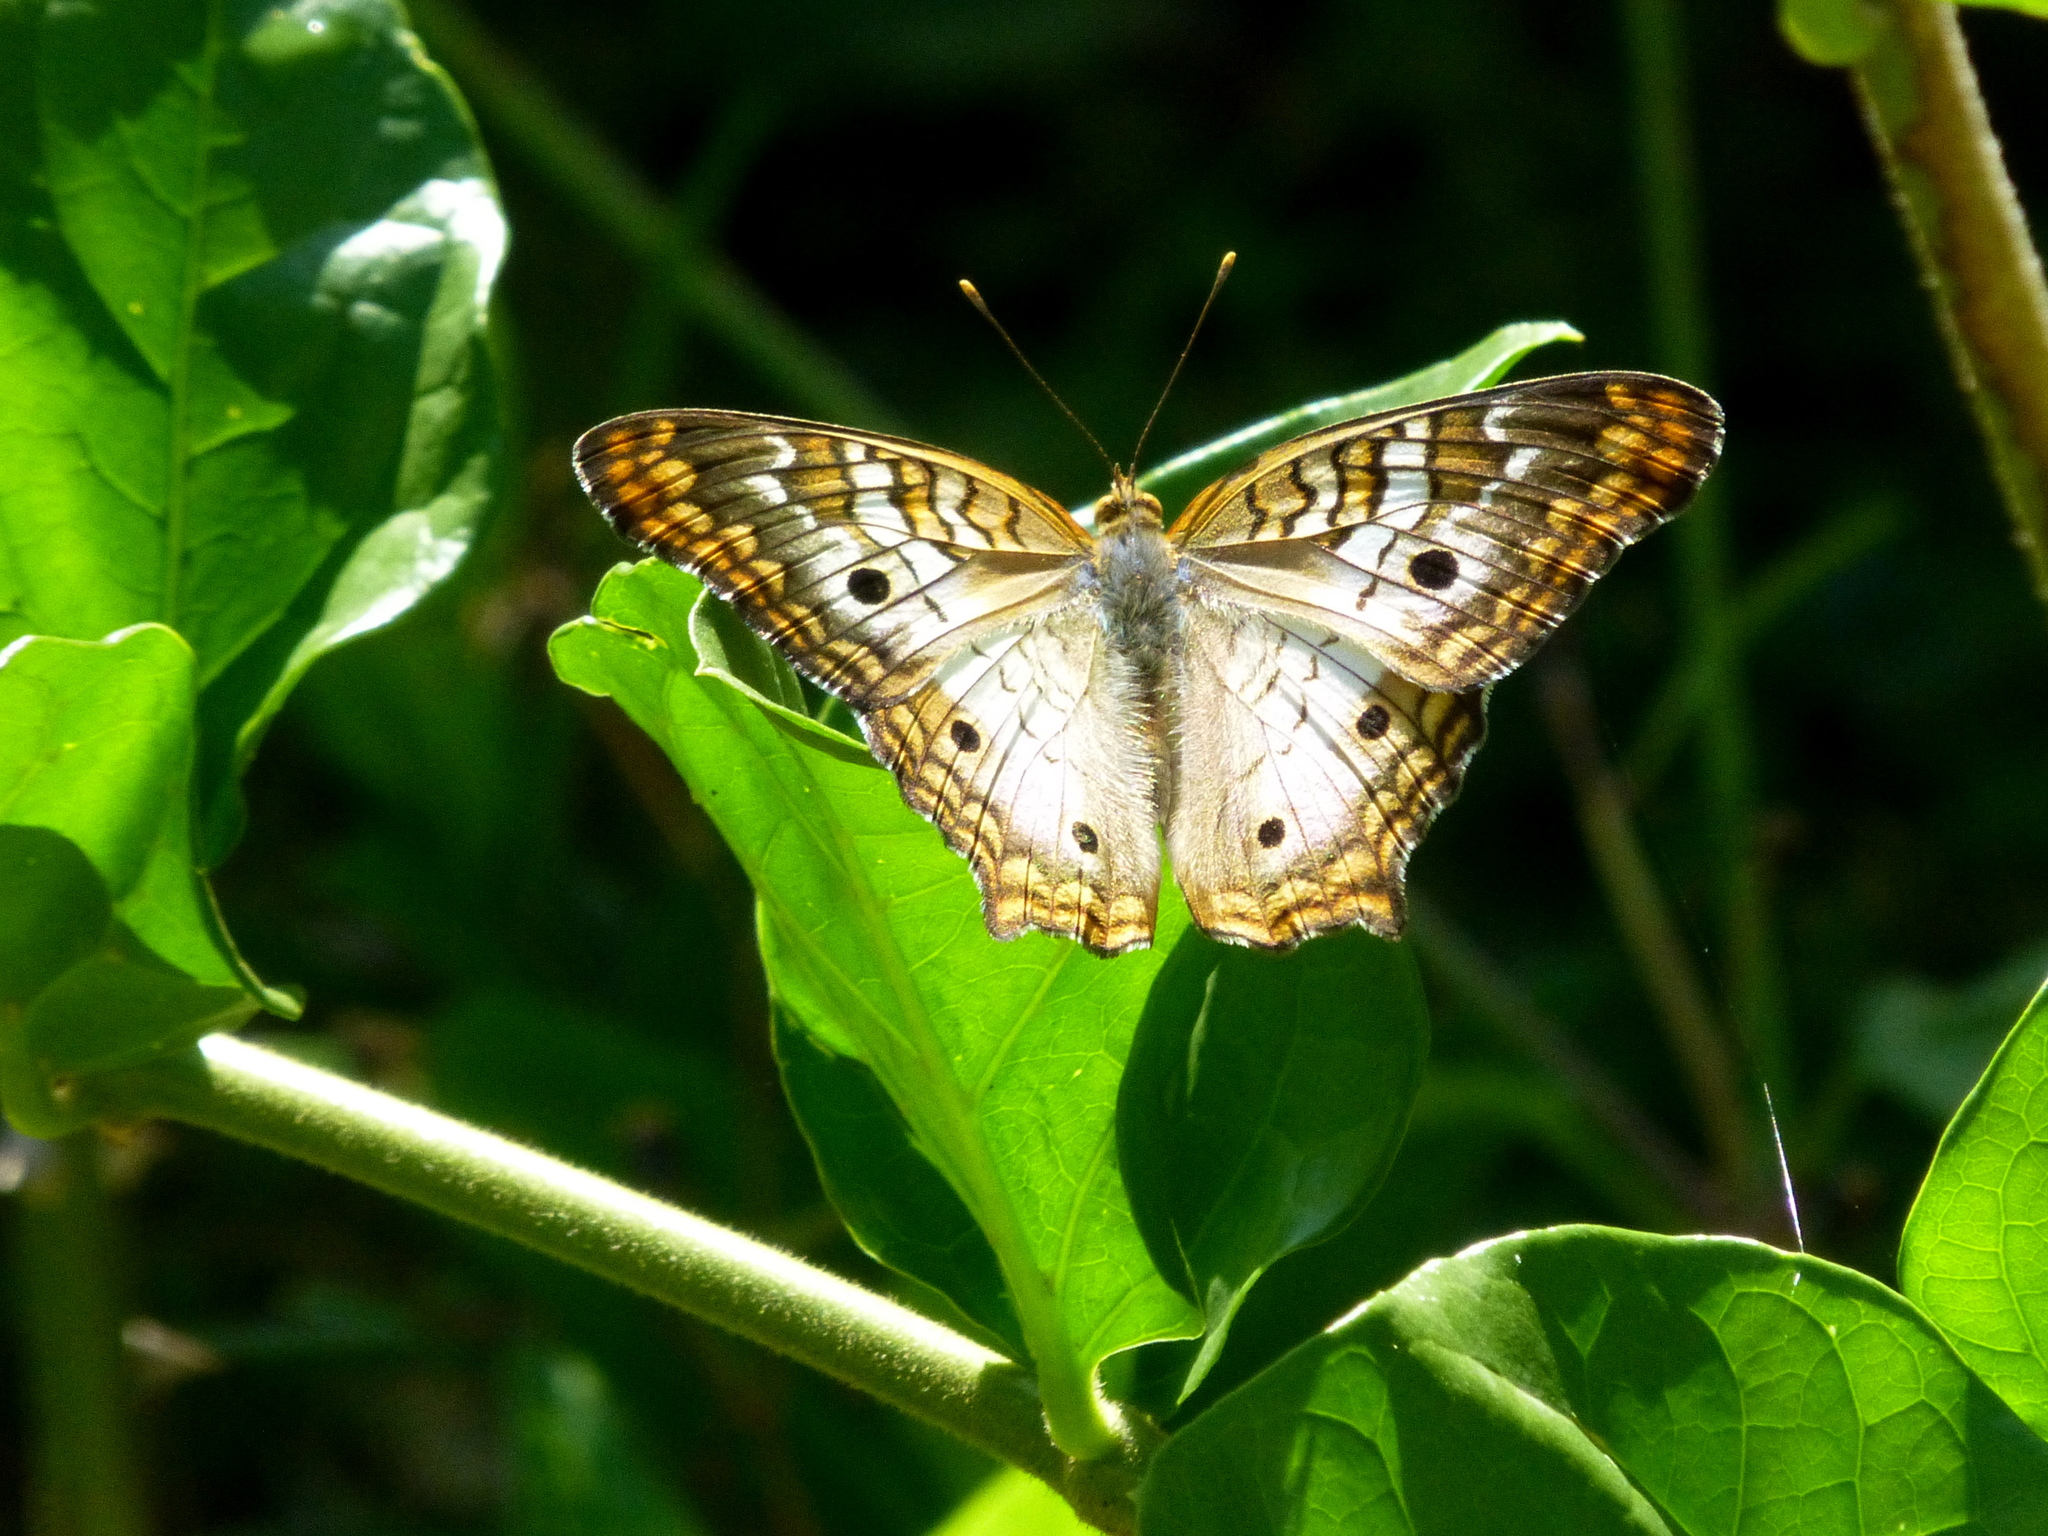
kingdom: Animalia
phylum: Arthropoda
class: Insecta
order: Lepidoptera
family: Nymphalidae
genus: Anartia
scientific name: Anartia jatrophae
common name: White peacock
